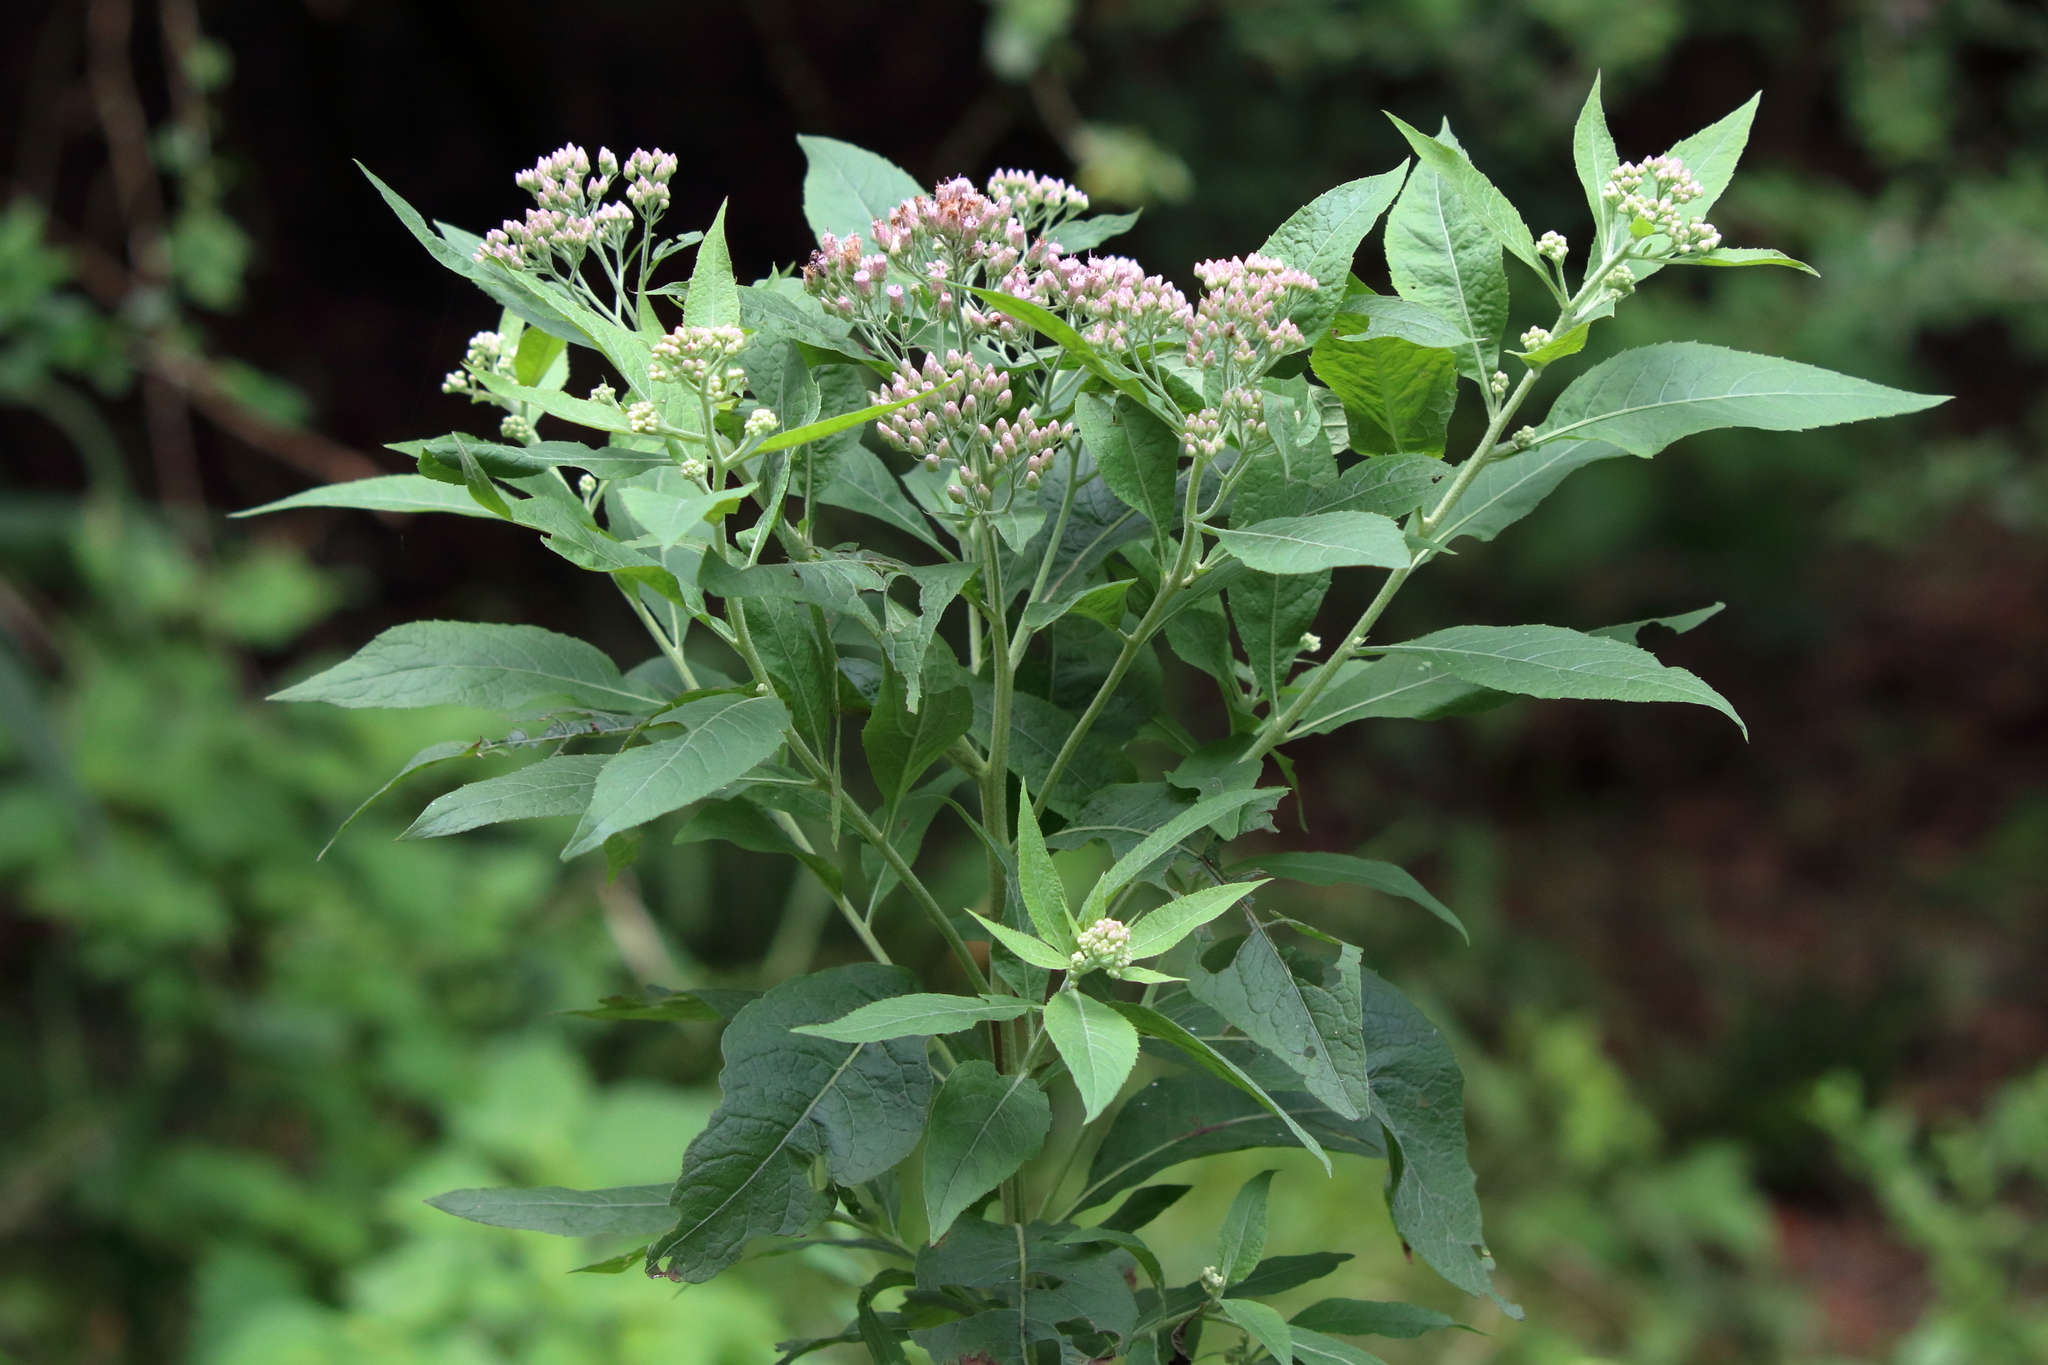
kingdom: Plantae
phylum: Tracheophyta
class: Magnoliopsida
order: Asterales
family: Asteraceae
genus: Pluchea
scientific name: Pluchea camphorata
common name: Camphor pluchea
